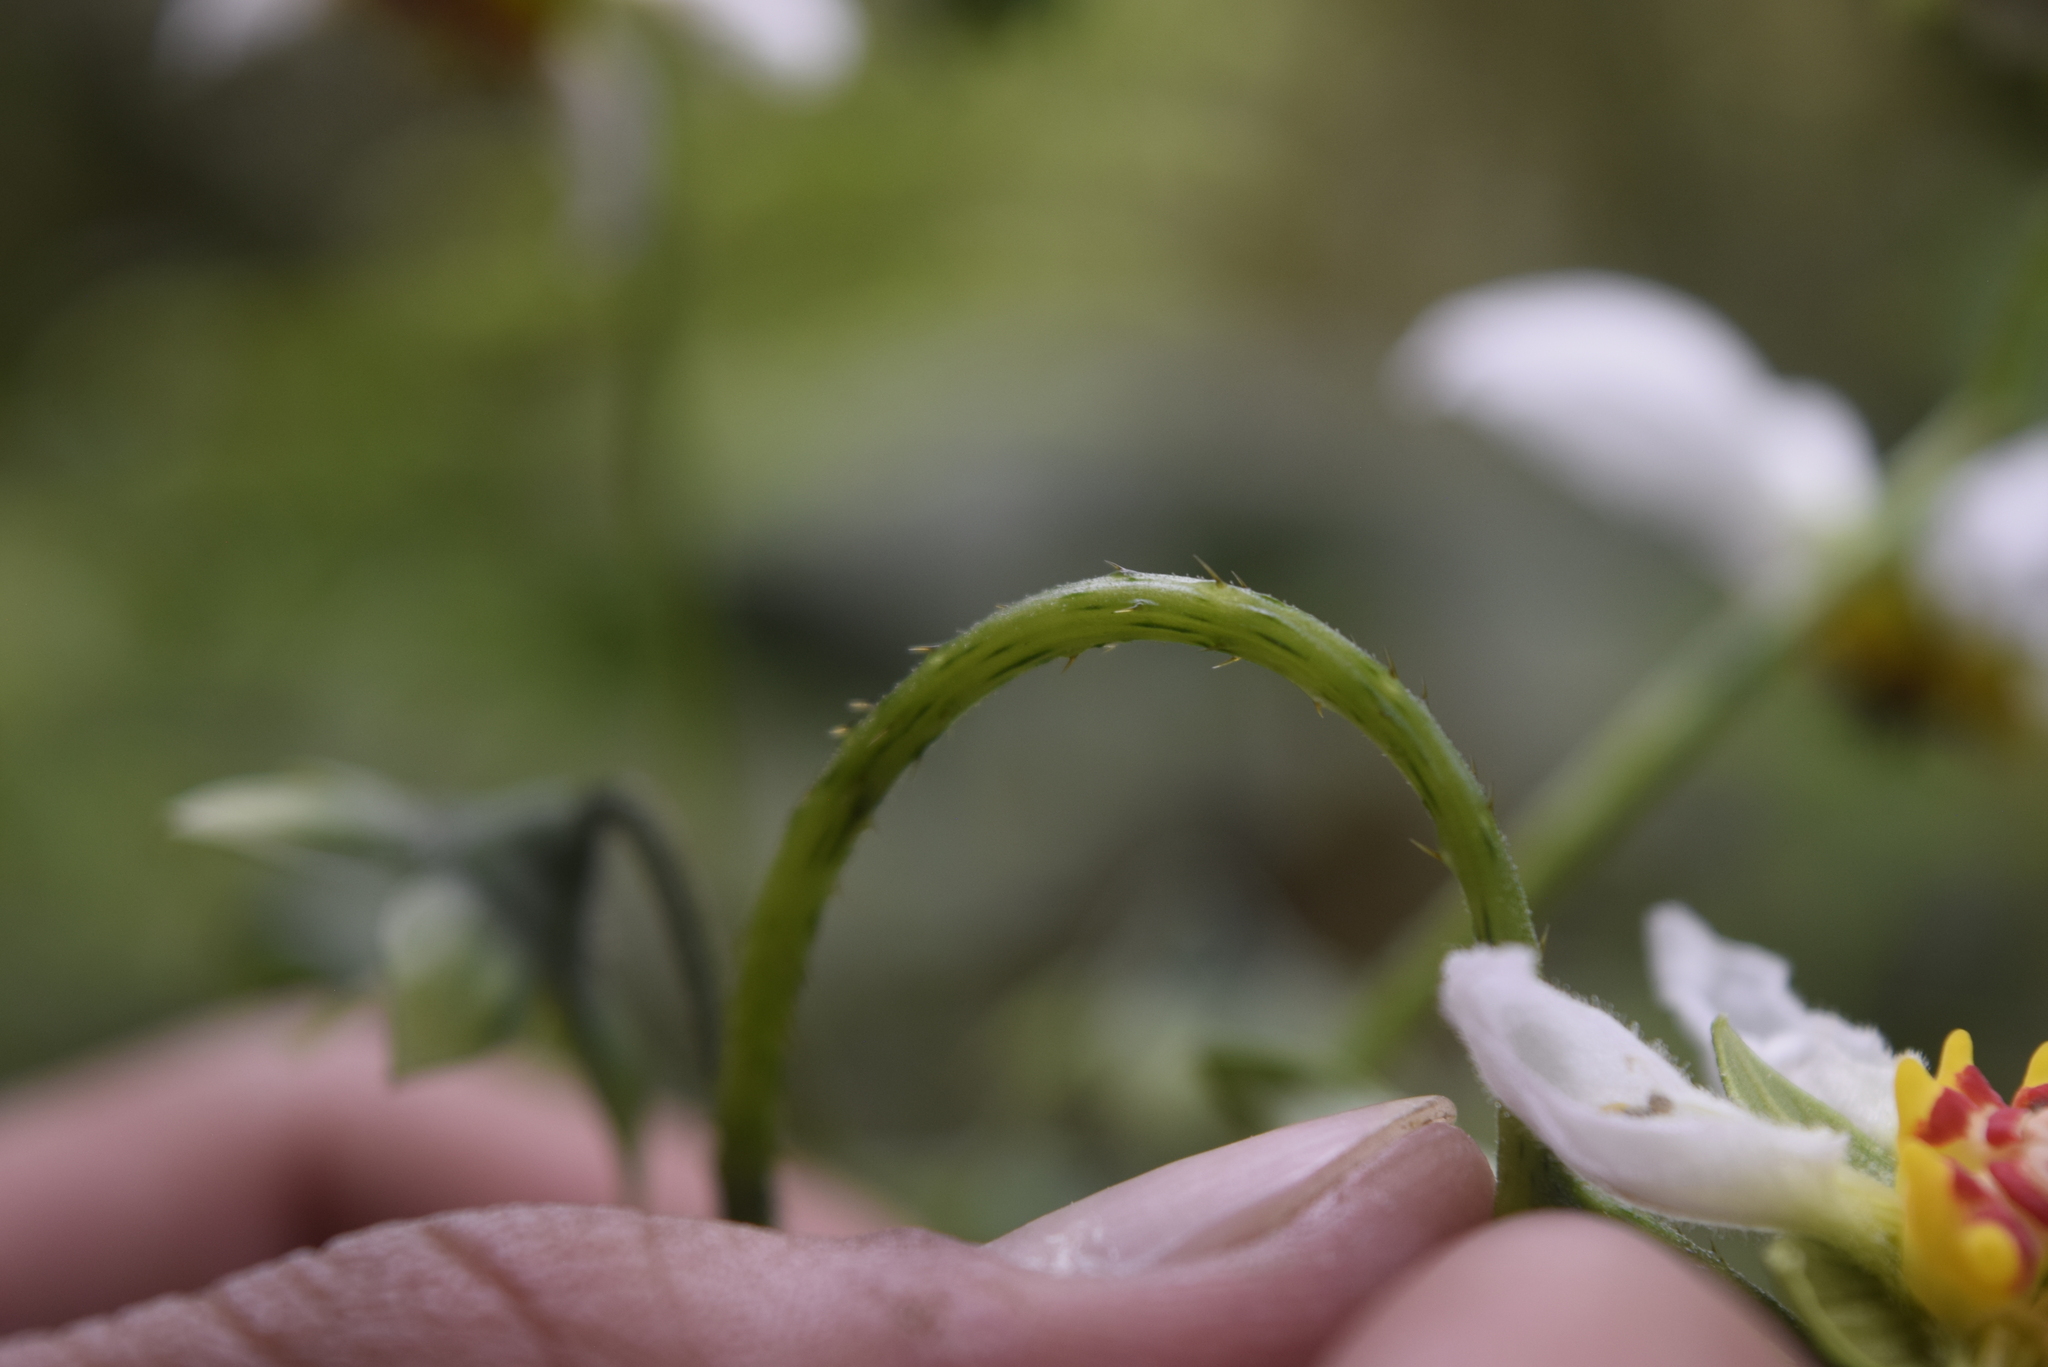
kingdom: Plantae
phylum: Tracheophyta
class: Magnoliopsida
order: Cornales
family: Loasaceae
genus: Nasa
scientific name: Nasa aequatoriana
